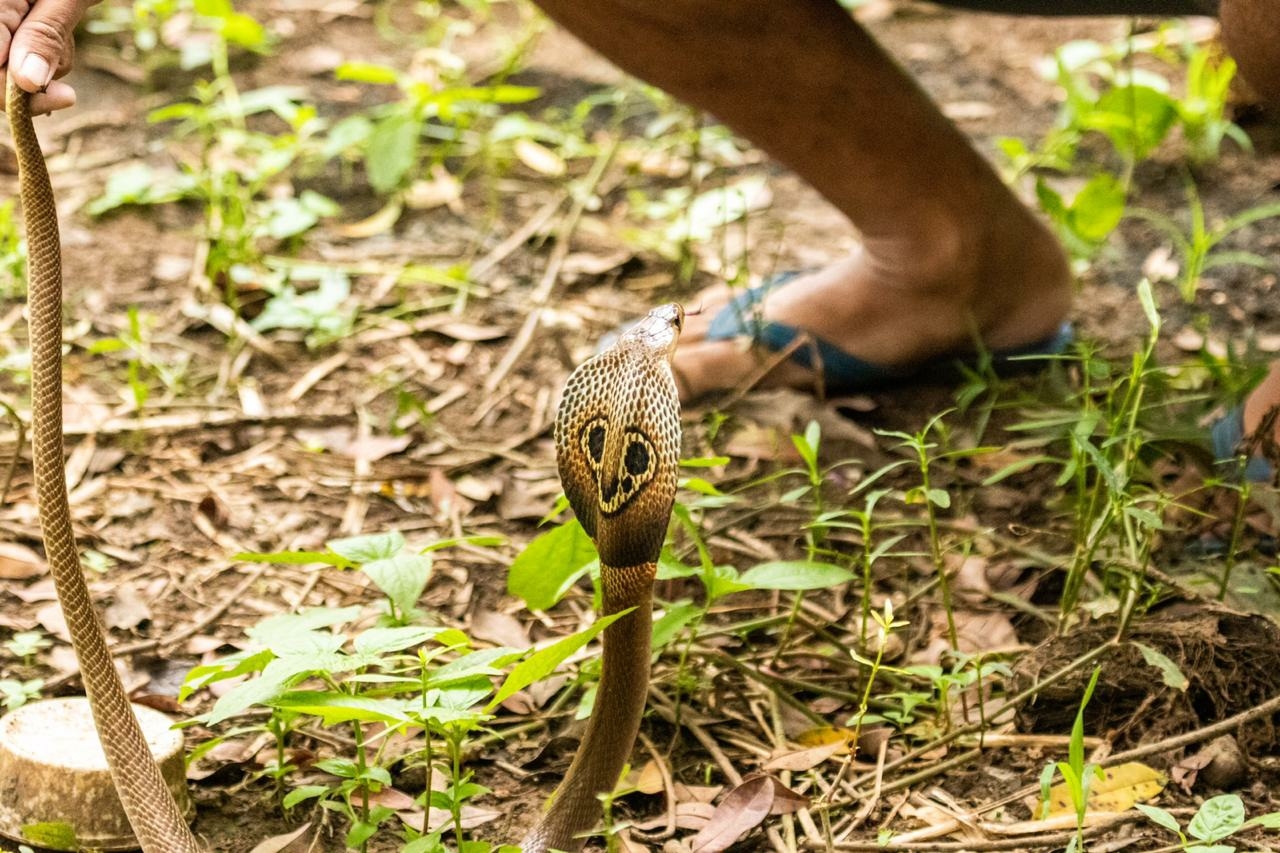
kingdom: Animalia
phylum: Chordata
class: Squamata
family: Elapidae
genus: Naja
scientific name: Naja naja
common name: Indian cobra
